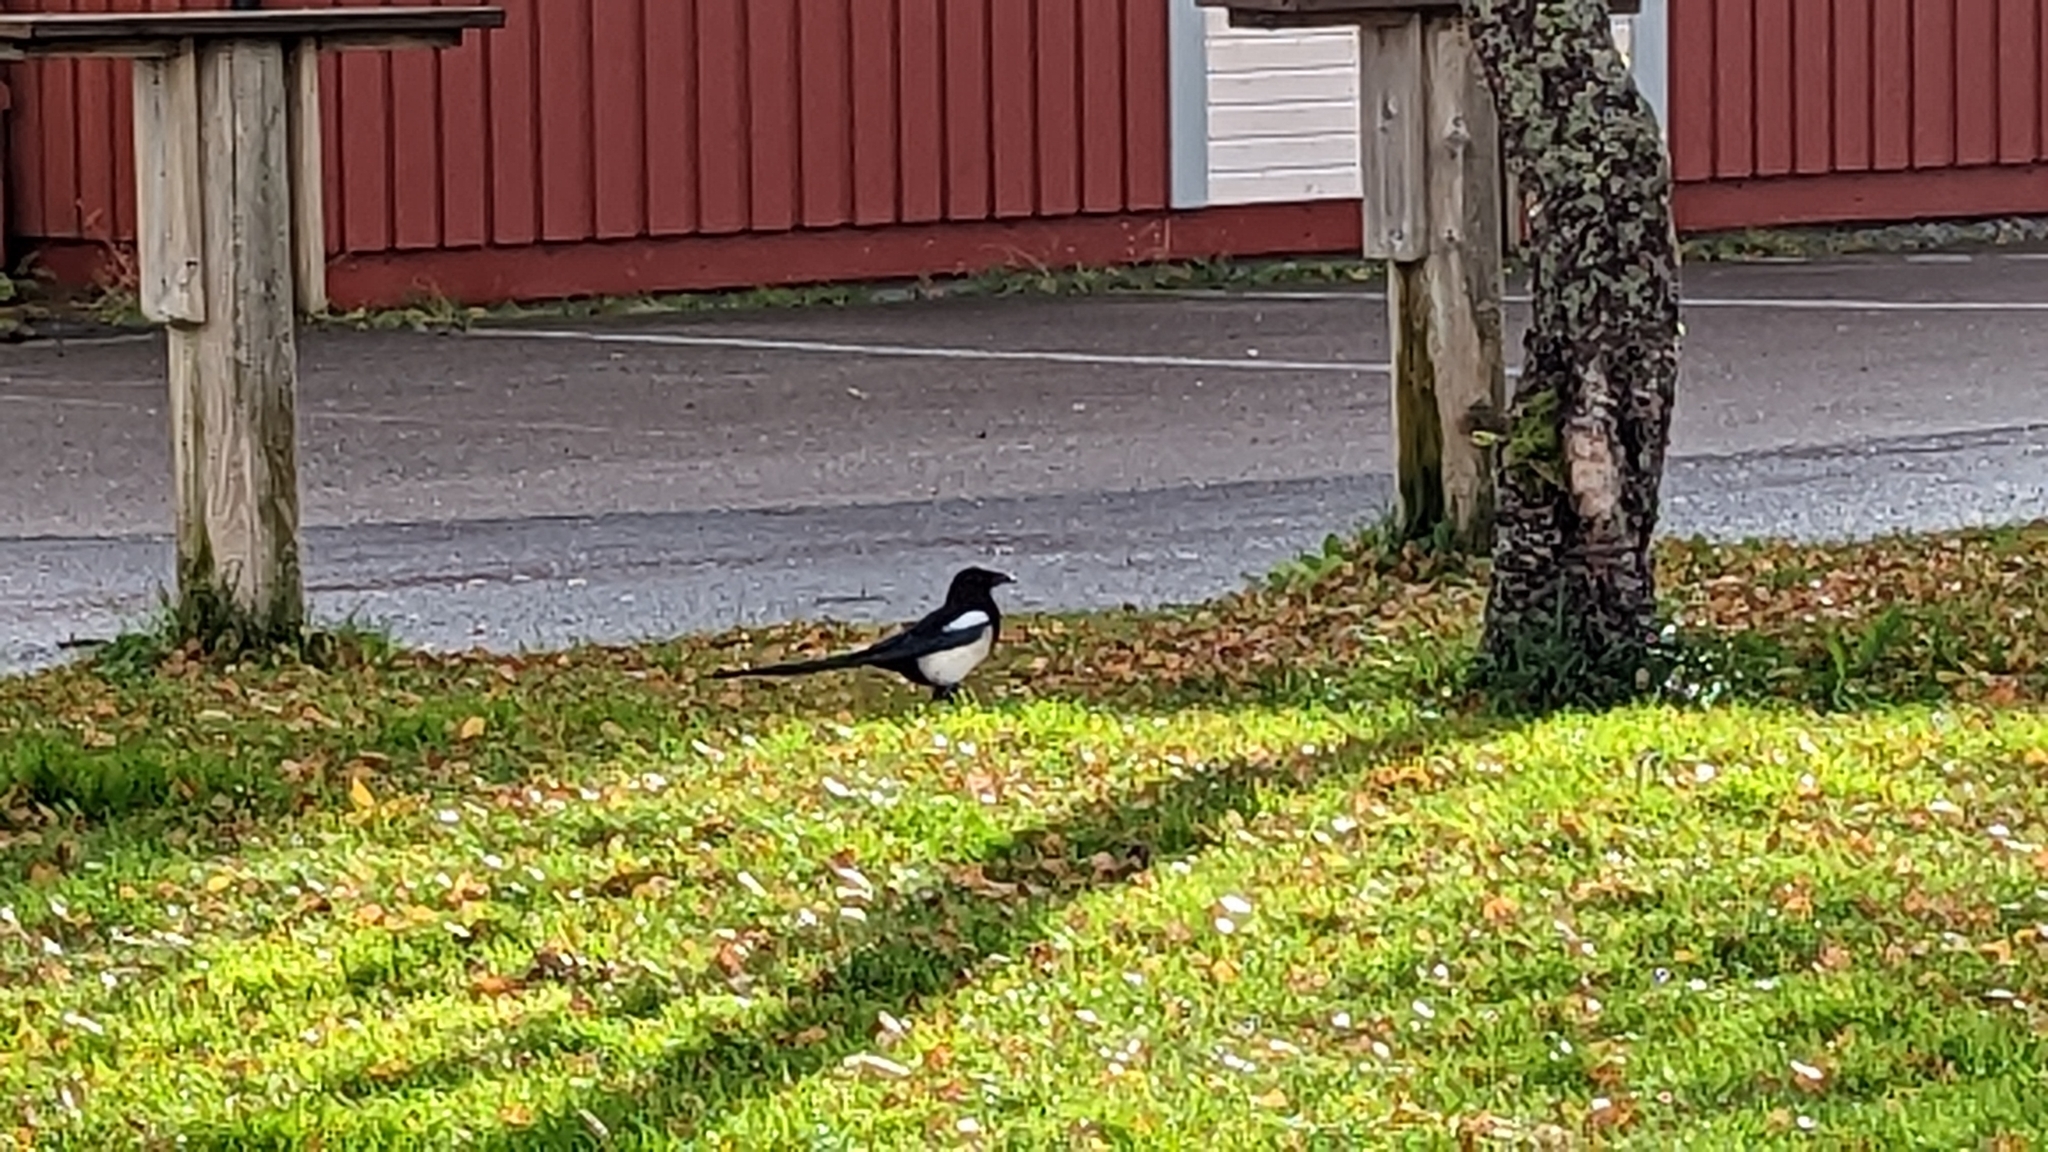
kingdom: Animalia
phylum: Chordata
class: Aves
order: Passeriformes
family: Corvidae
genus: Pica
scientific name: Pica pica
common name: Eurasian magpie
